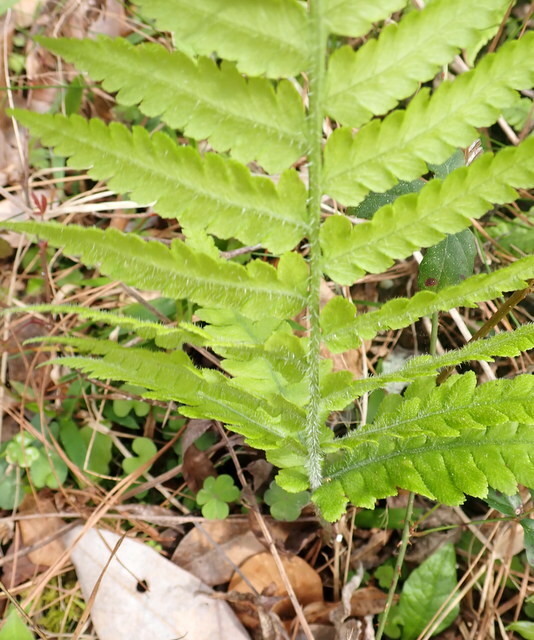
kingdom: Plantae
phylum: Tracheophyta
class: Polypodiopsida
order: Polypodiales
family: Athyriaceae
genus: Deparia
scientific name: Deparia petersenii
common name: Japanese false spleenwort
